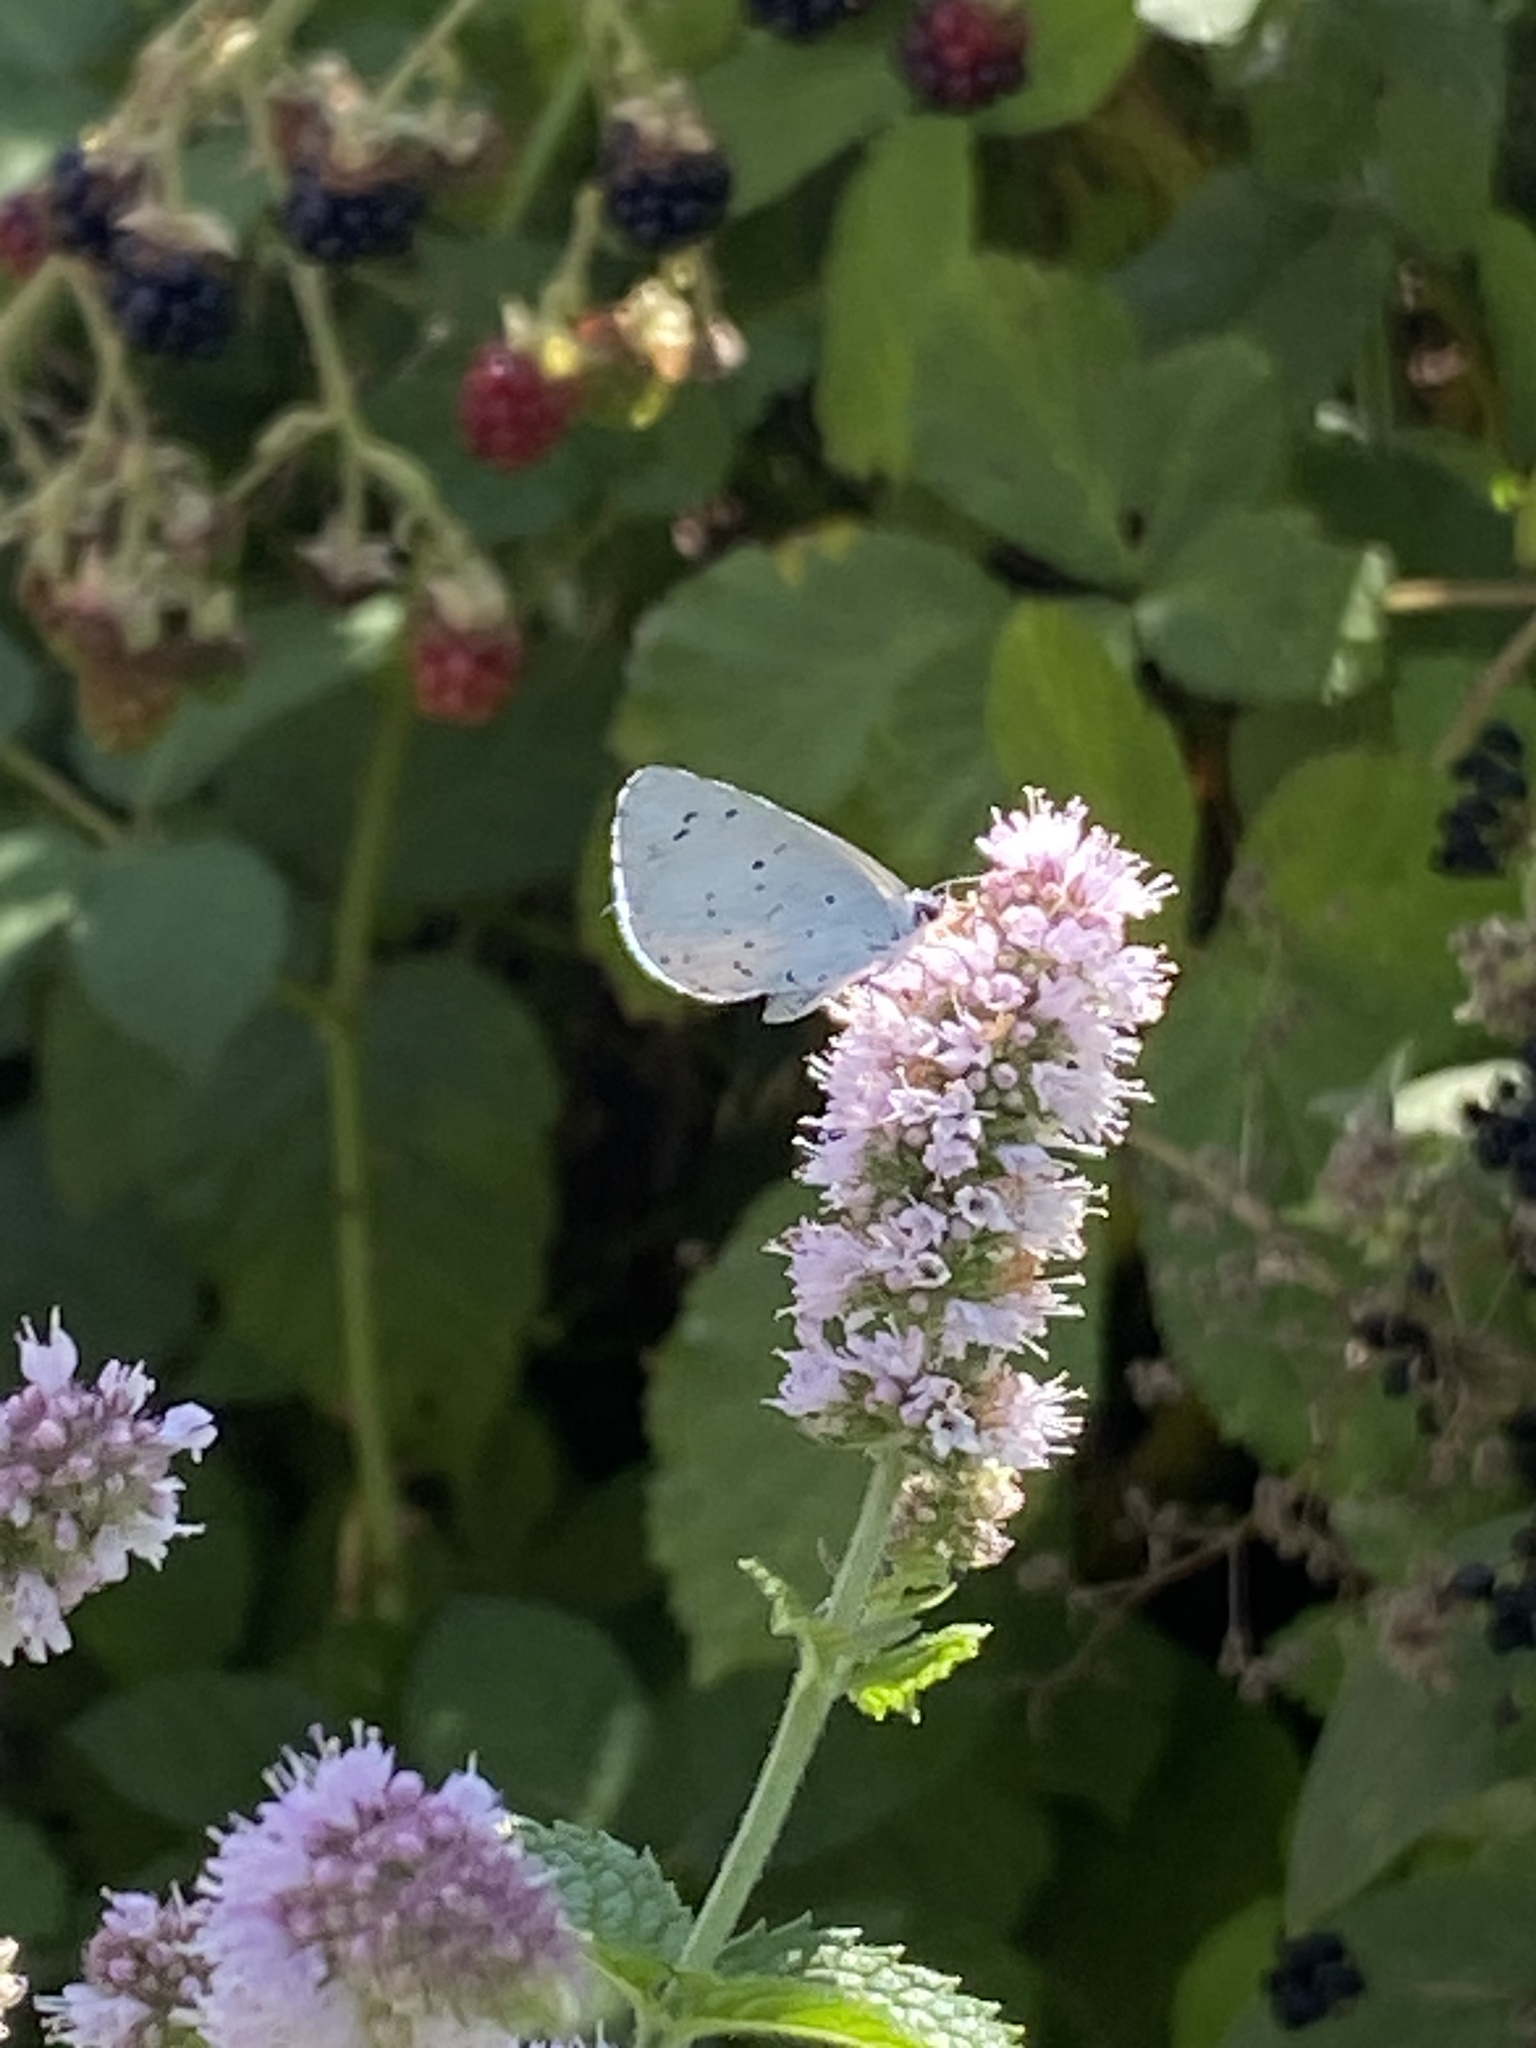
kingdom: Animalia
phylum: Arthropoda
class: Insecta
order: Lepidoptera
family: Lycaenidae
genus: Celastrina
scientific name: Celastrina argiolus
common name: Holly blue
